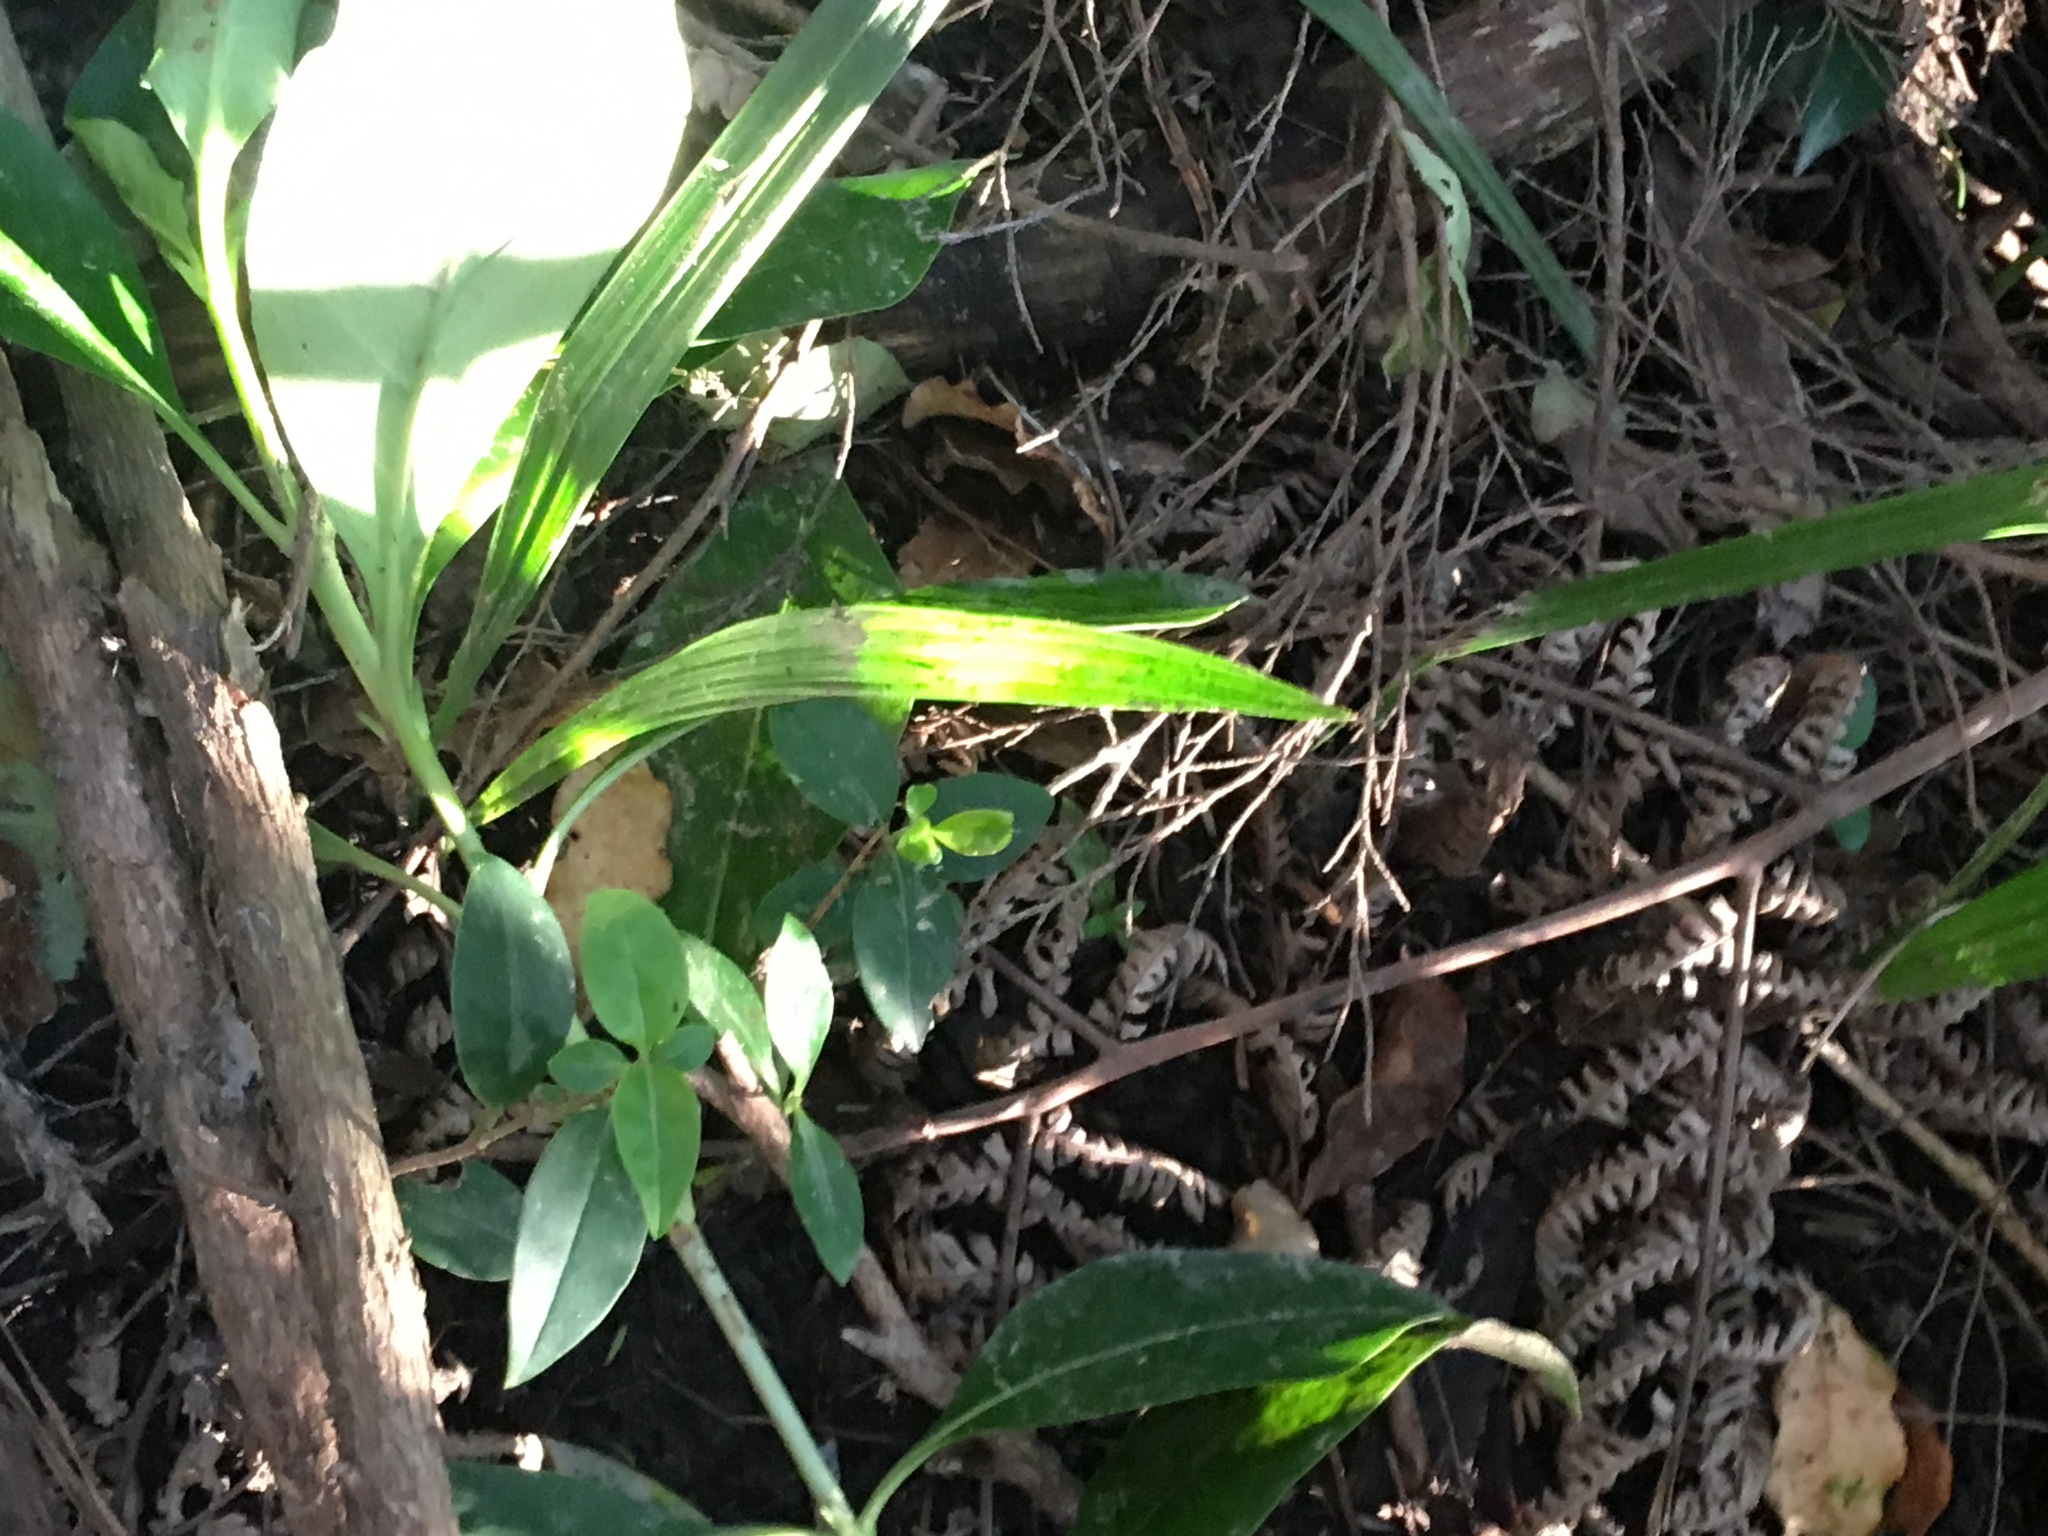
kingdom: Plantae
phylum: Tracheophyta
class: Liliopsida
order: Arecales
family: Arecaceae
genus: Phoenix
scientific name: Phoenix canariensis
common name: Canary island date palm
